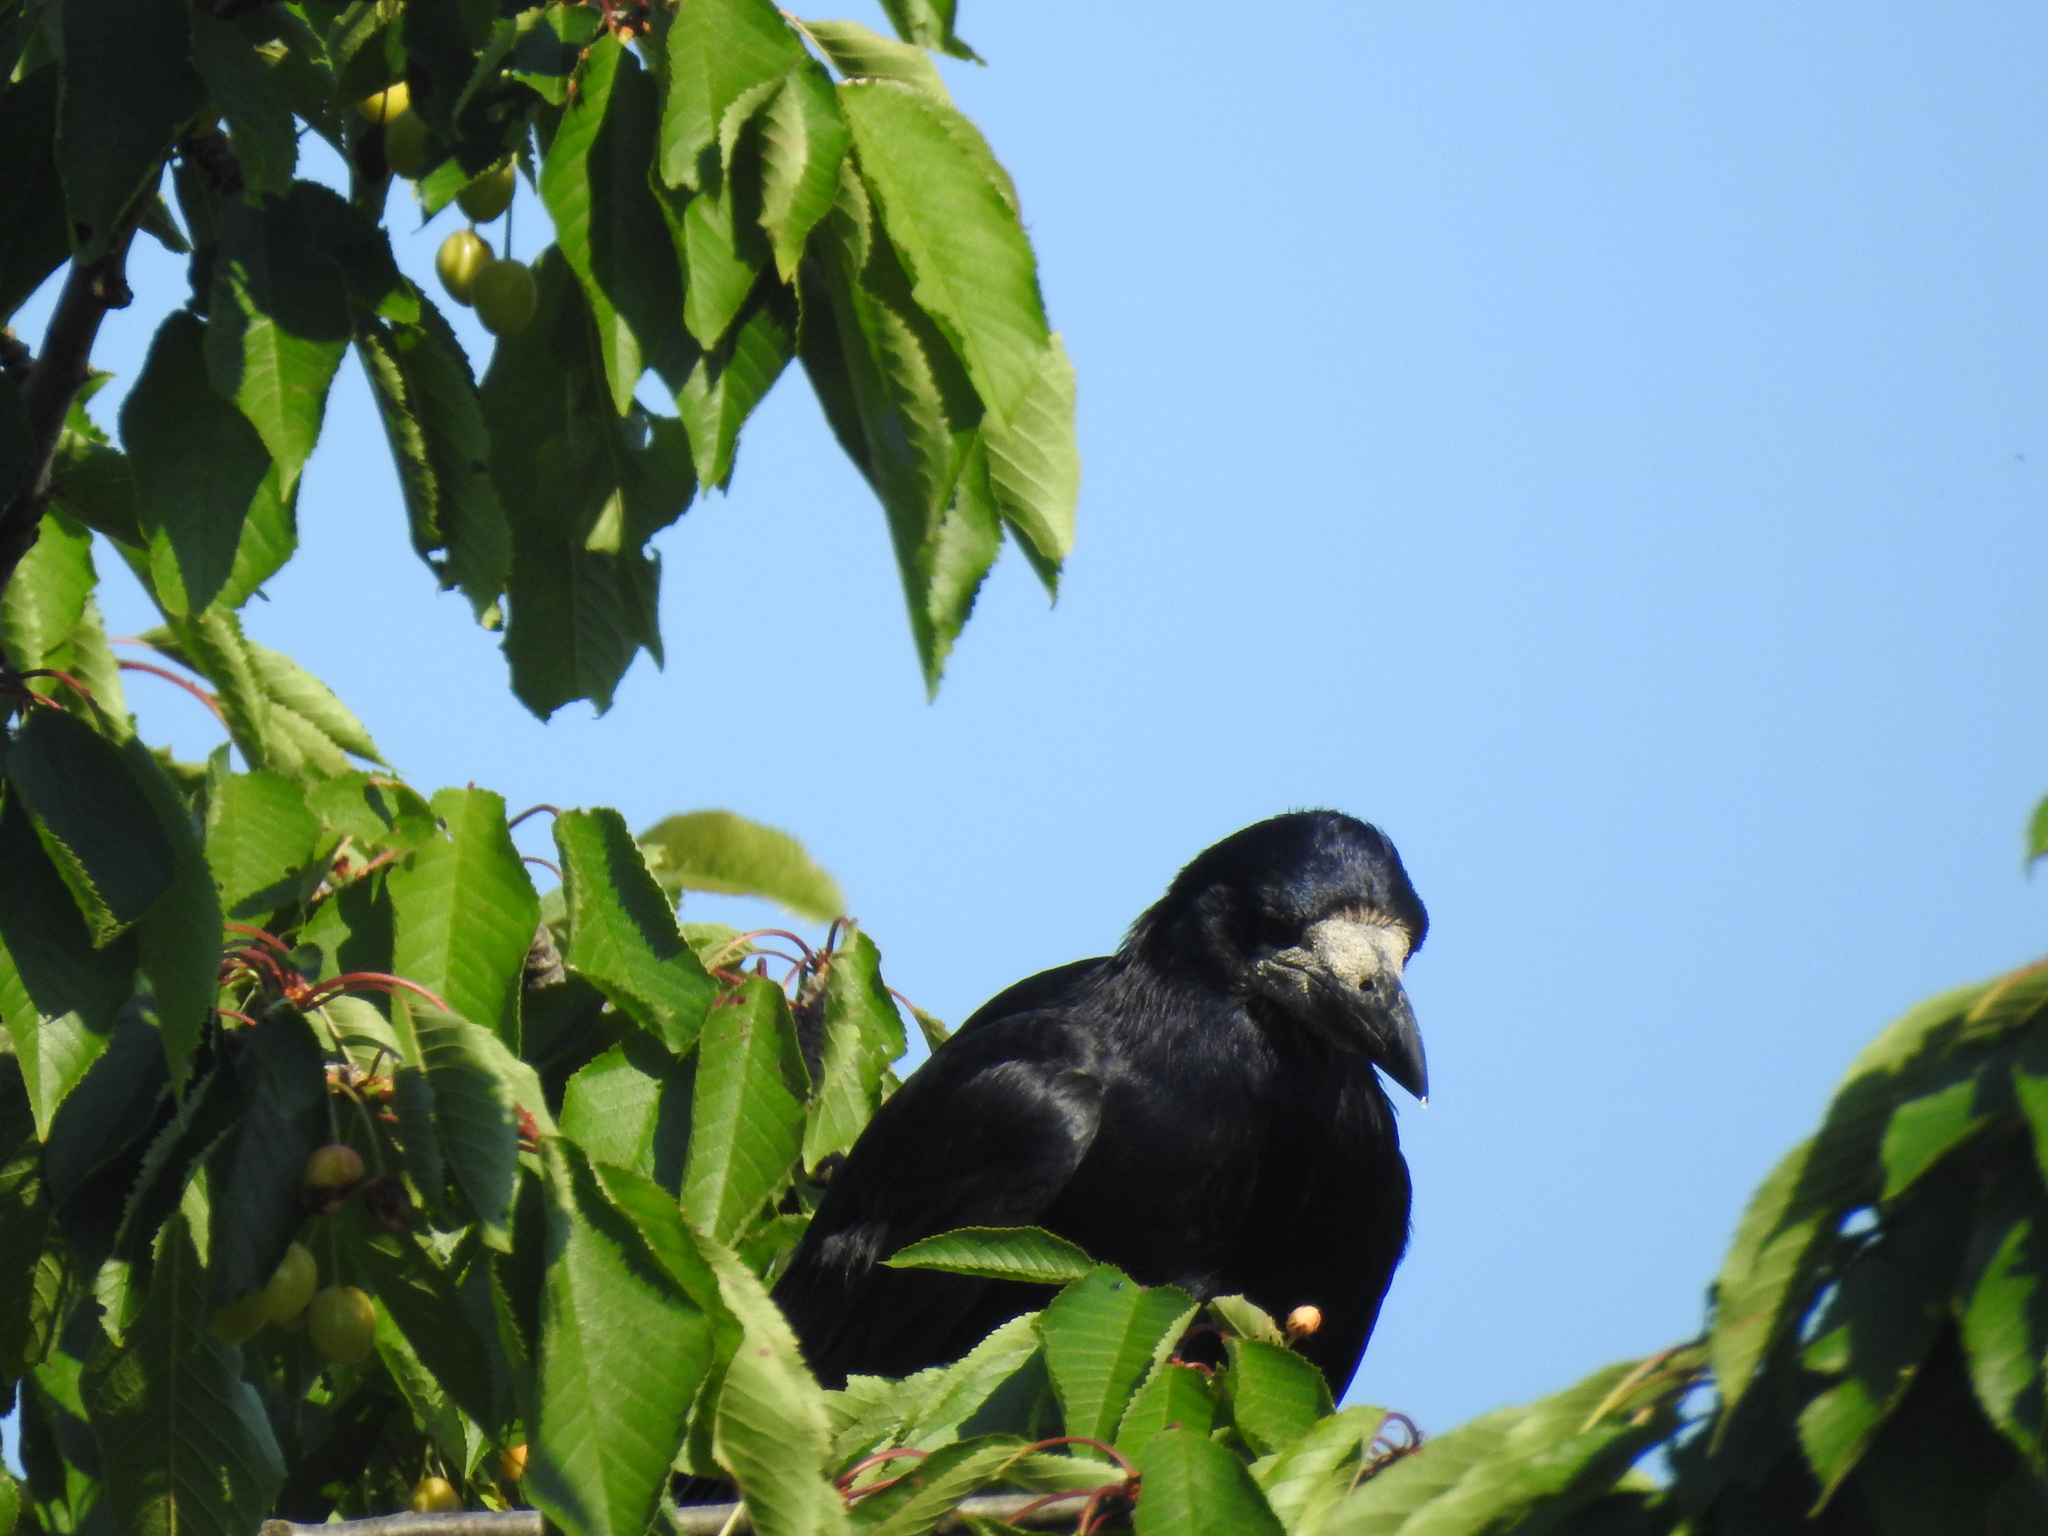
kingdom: Animalia
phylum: Chordata
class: Aves
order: Passeriformes
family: Corvidae
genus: Corvus
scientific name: Corvus frugilegus
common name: Rook
